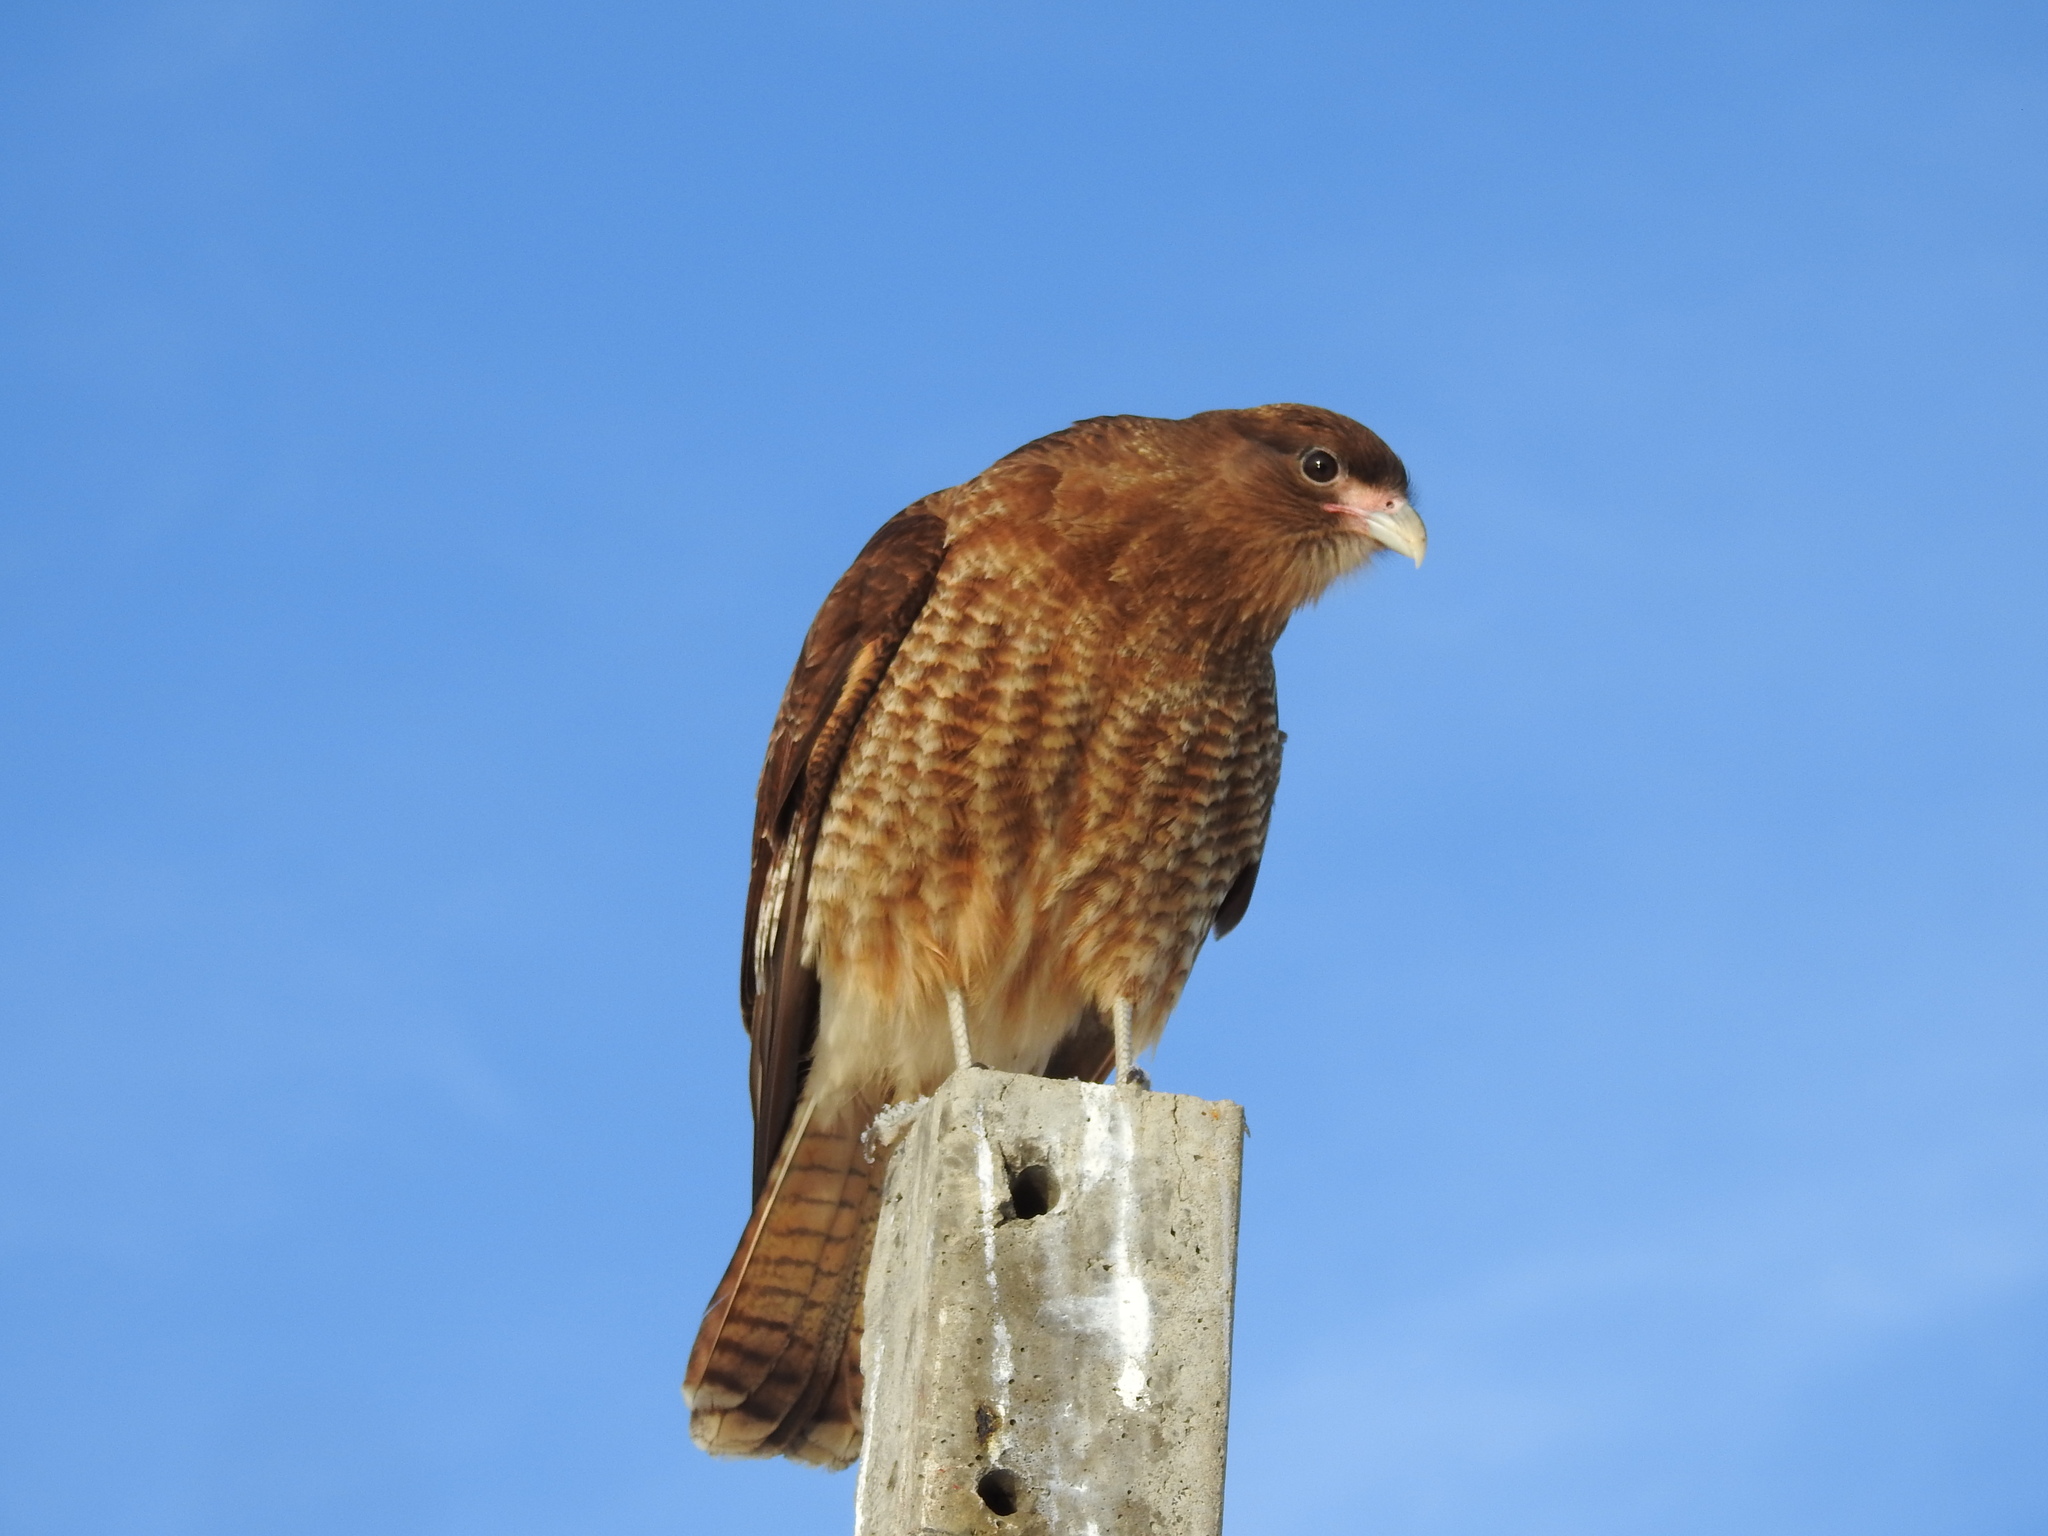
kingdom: Animalia
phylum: Chordata
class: Aves
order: Falconiformes
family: Falconidae
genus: Daptrius
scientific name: Daptrius
